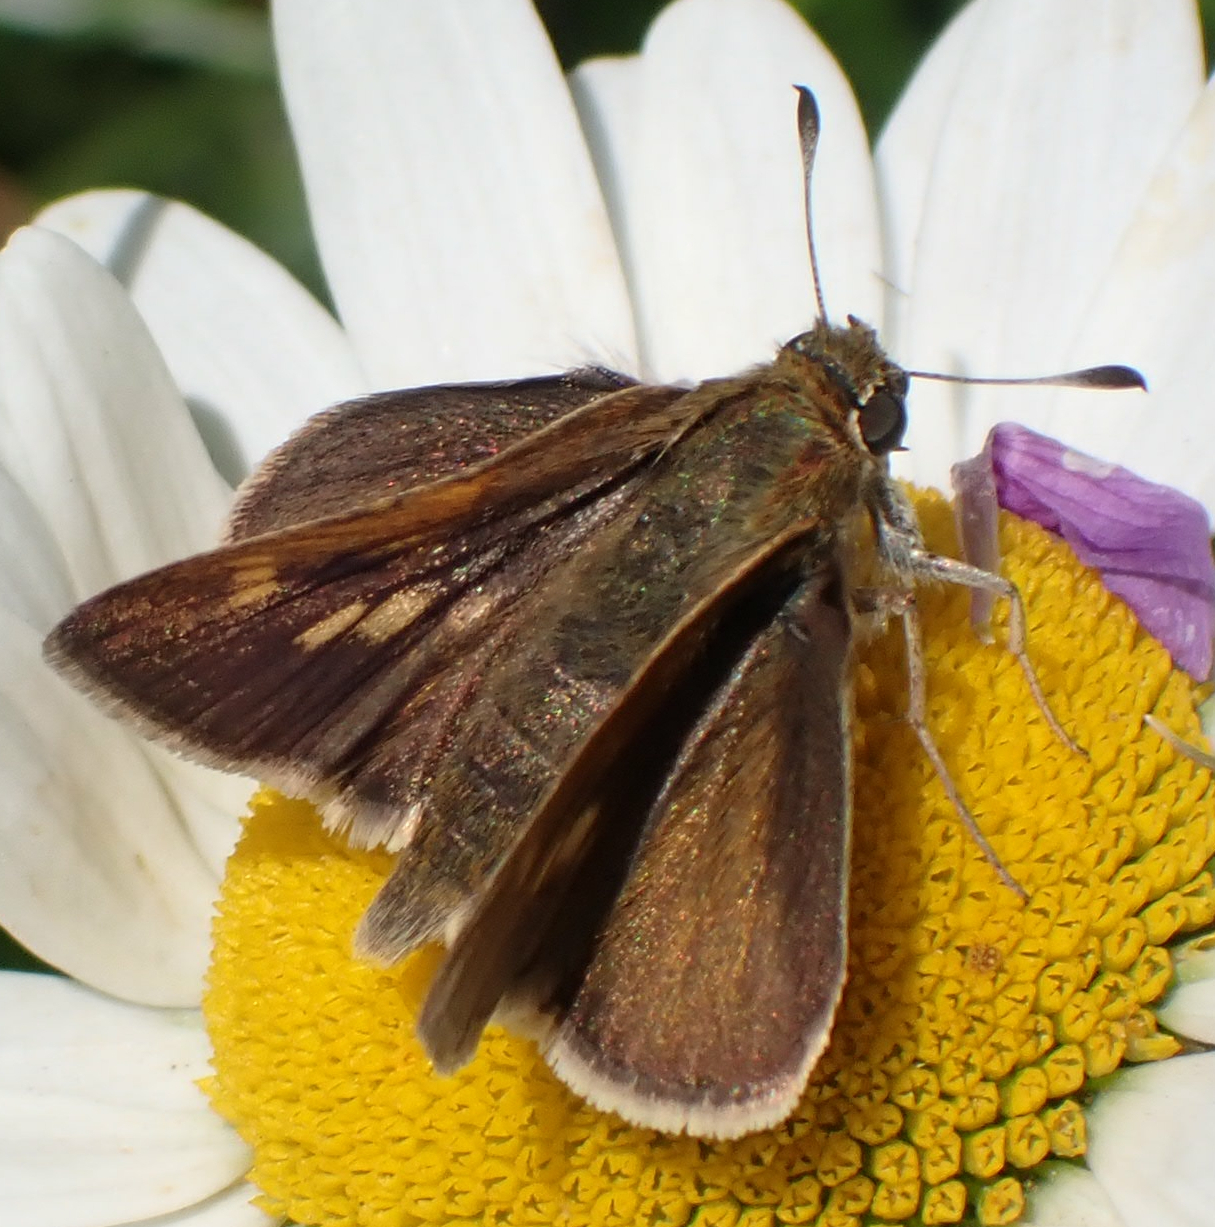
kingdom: Animalia
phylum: Arthropoda
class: Insecta
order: Lepidoptera
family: Hesperiidae
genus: Polites
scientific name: Polites themistocles
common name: Tawny-edged skipper
